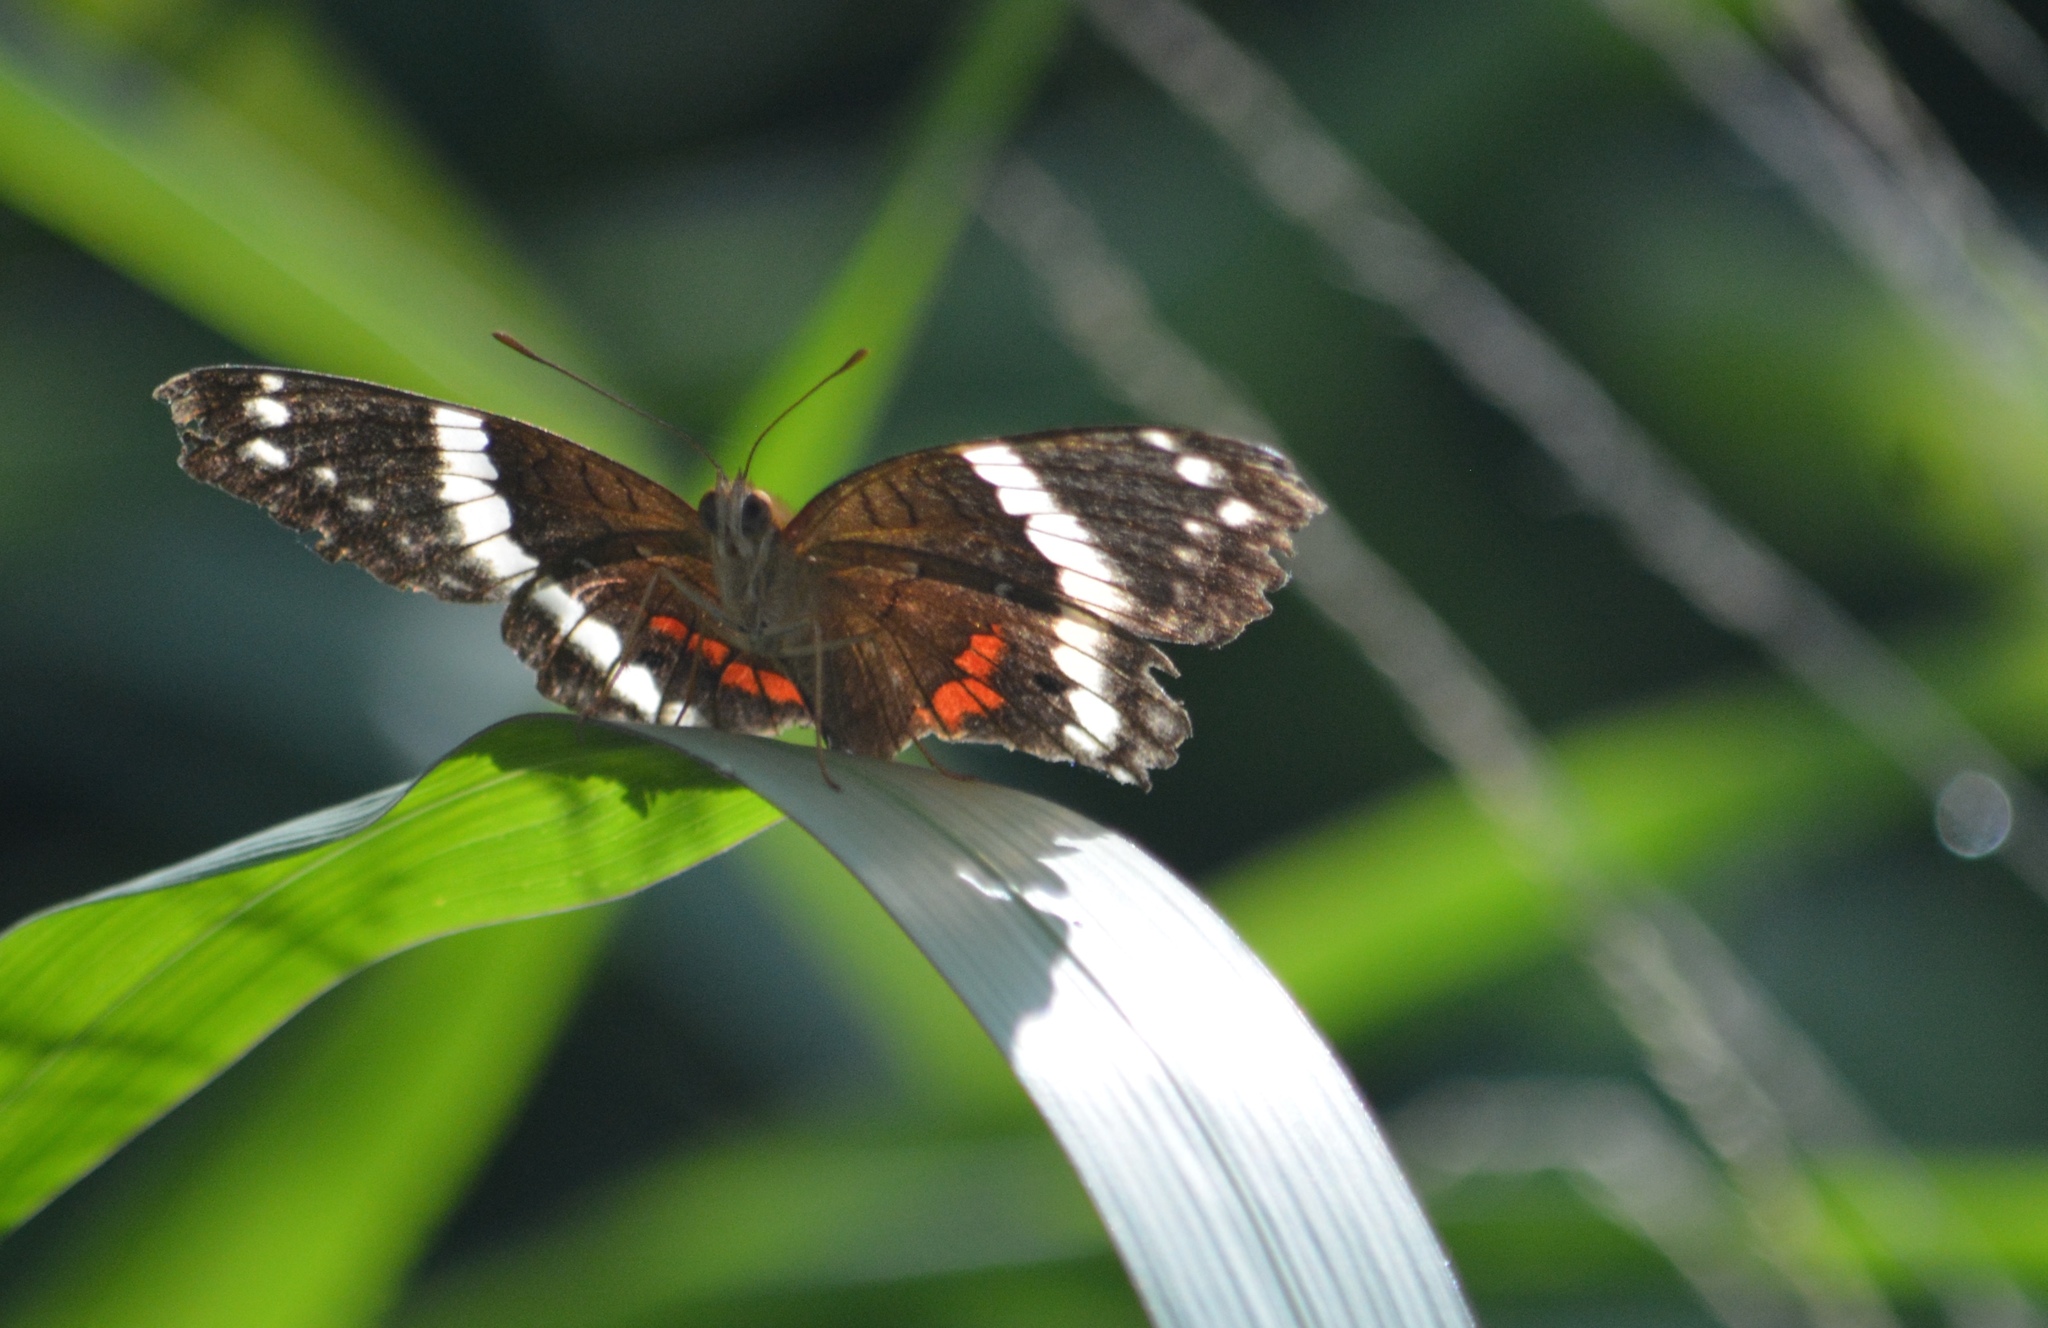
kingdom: Animalia
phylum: Arthropoda
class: Insecta
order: Lepidoptera
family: Nymphalidae
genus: Anartia
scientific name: Anartia fatima
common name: Banded peacock
